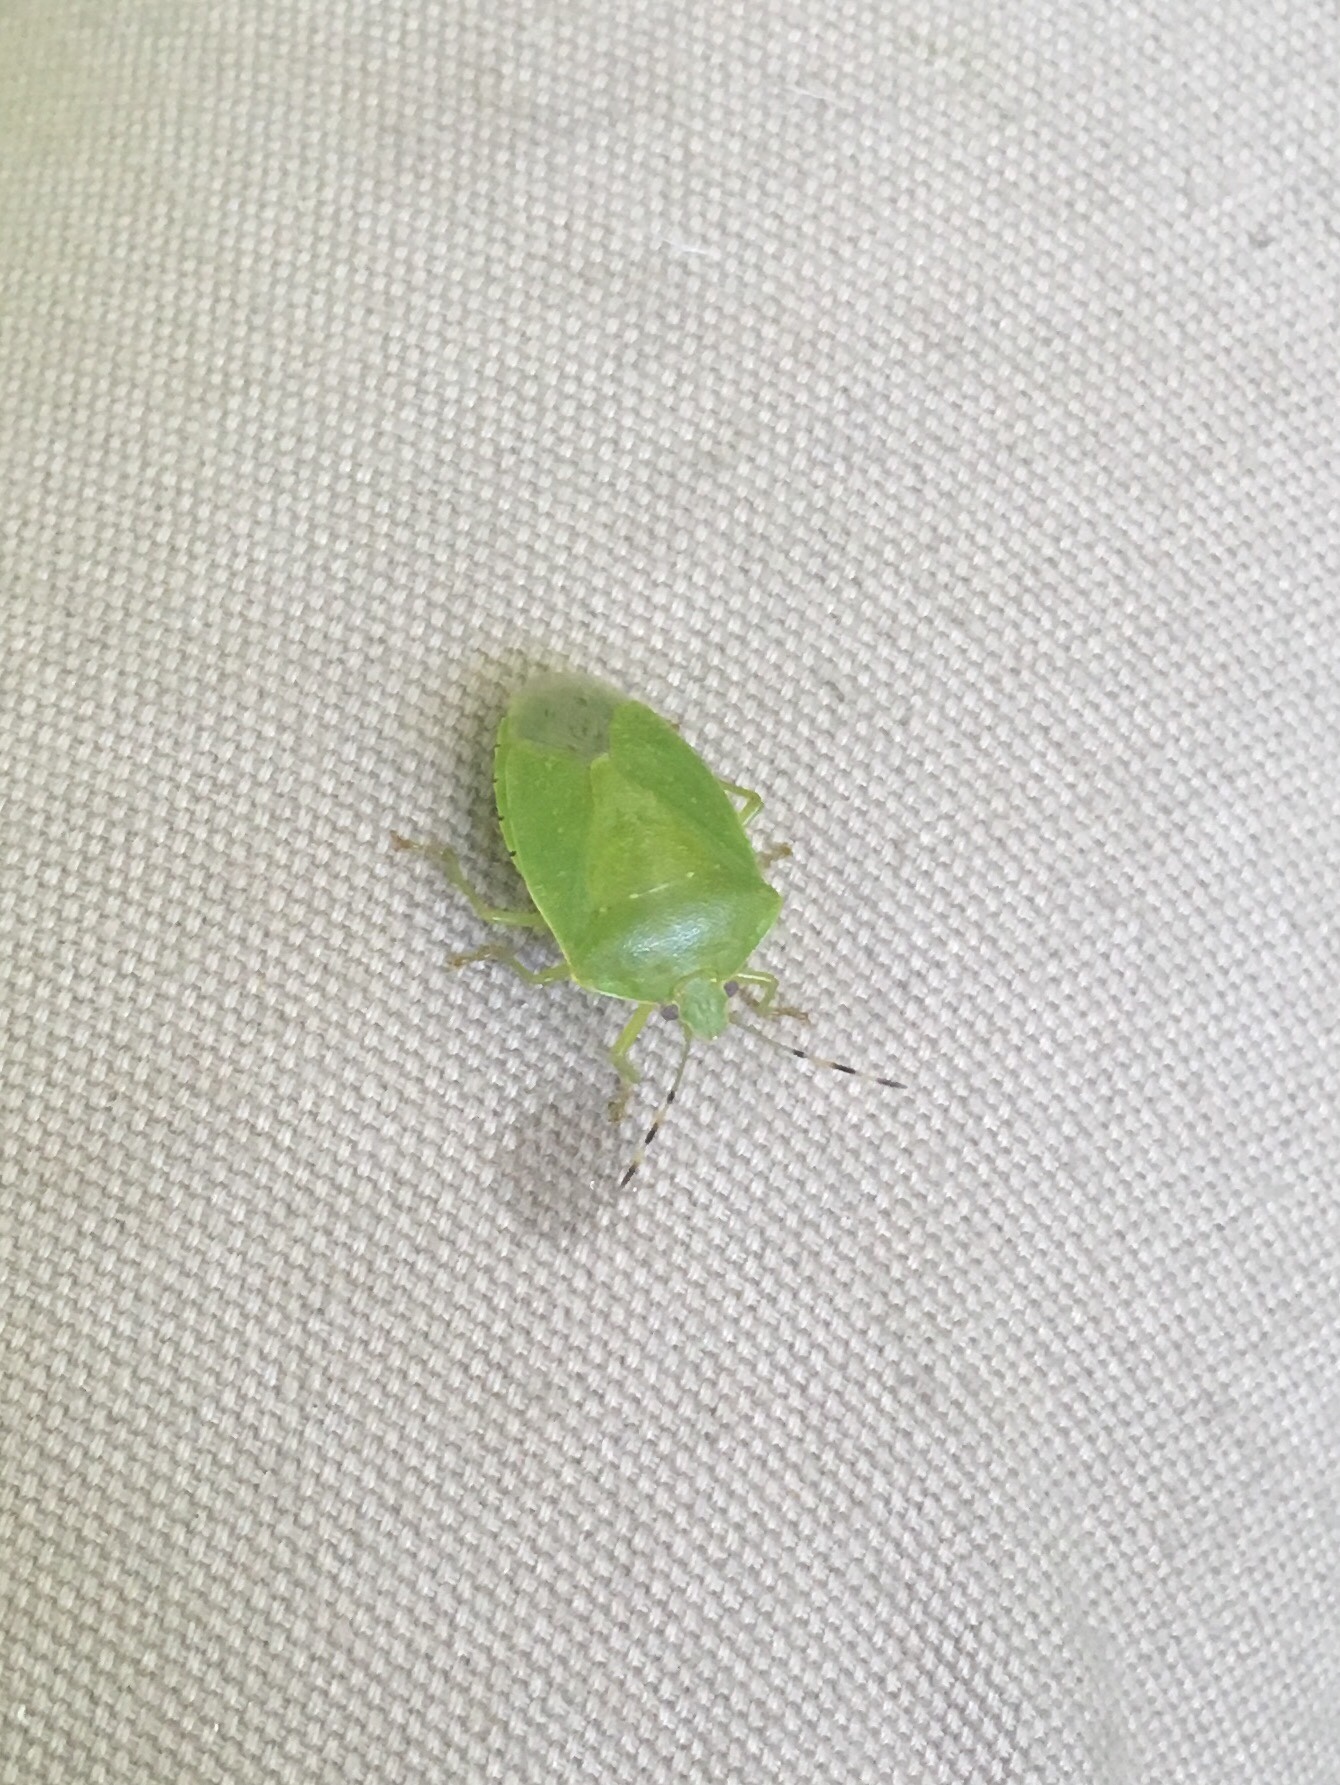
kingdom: Animalia
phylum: Arthropoda
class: Insecta
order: Hemiptera
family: Pentatomidae
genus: Chinavia
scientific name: Chinavia hilaris
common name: Green stink bug
